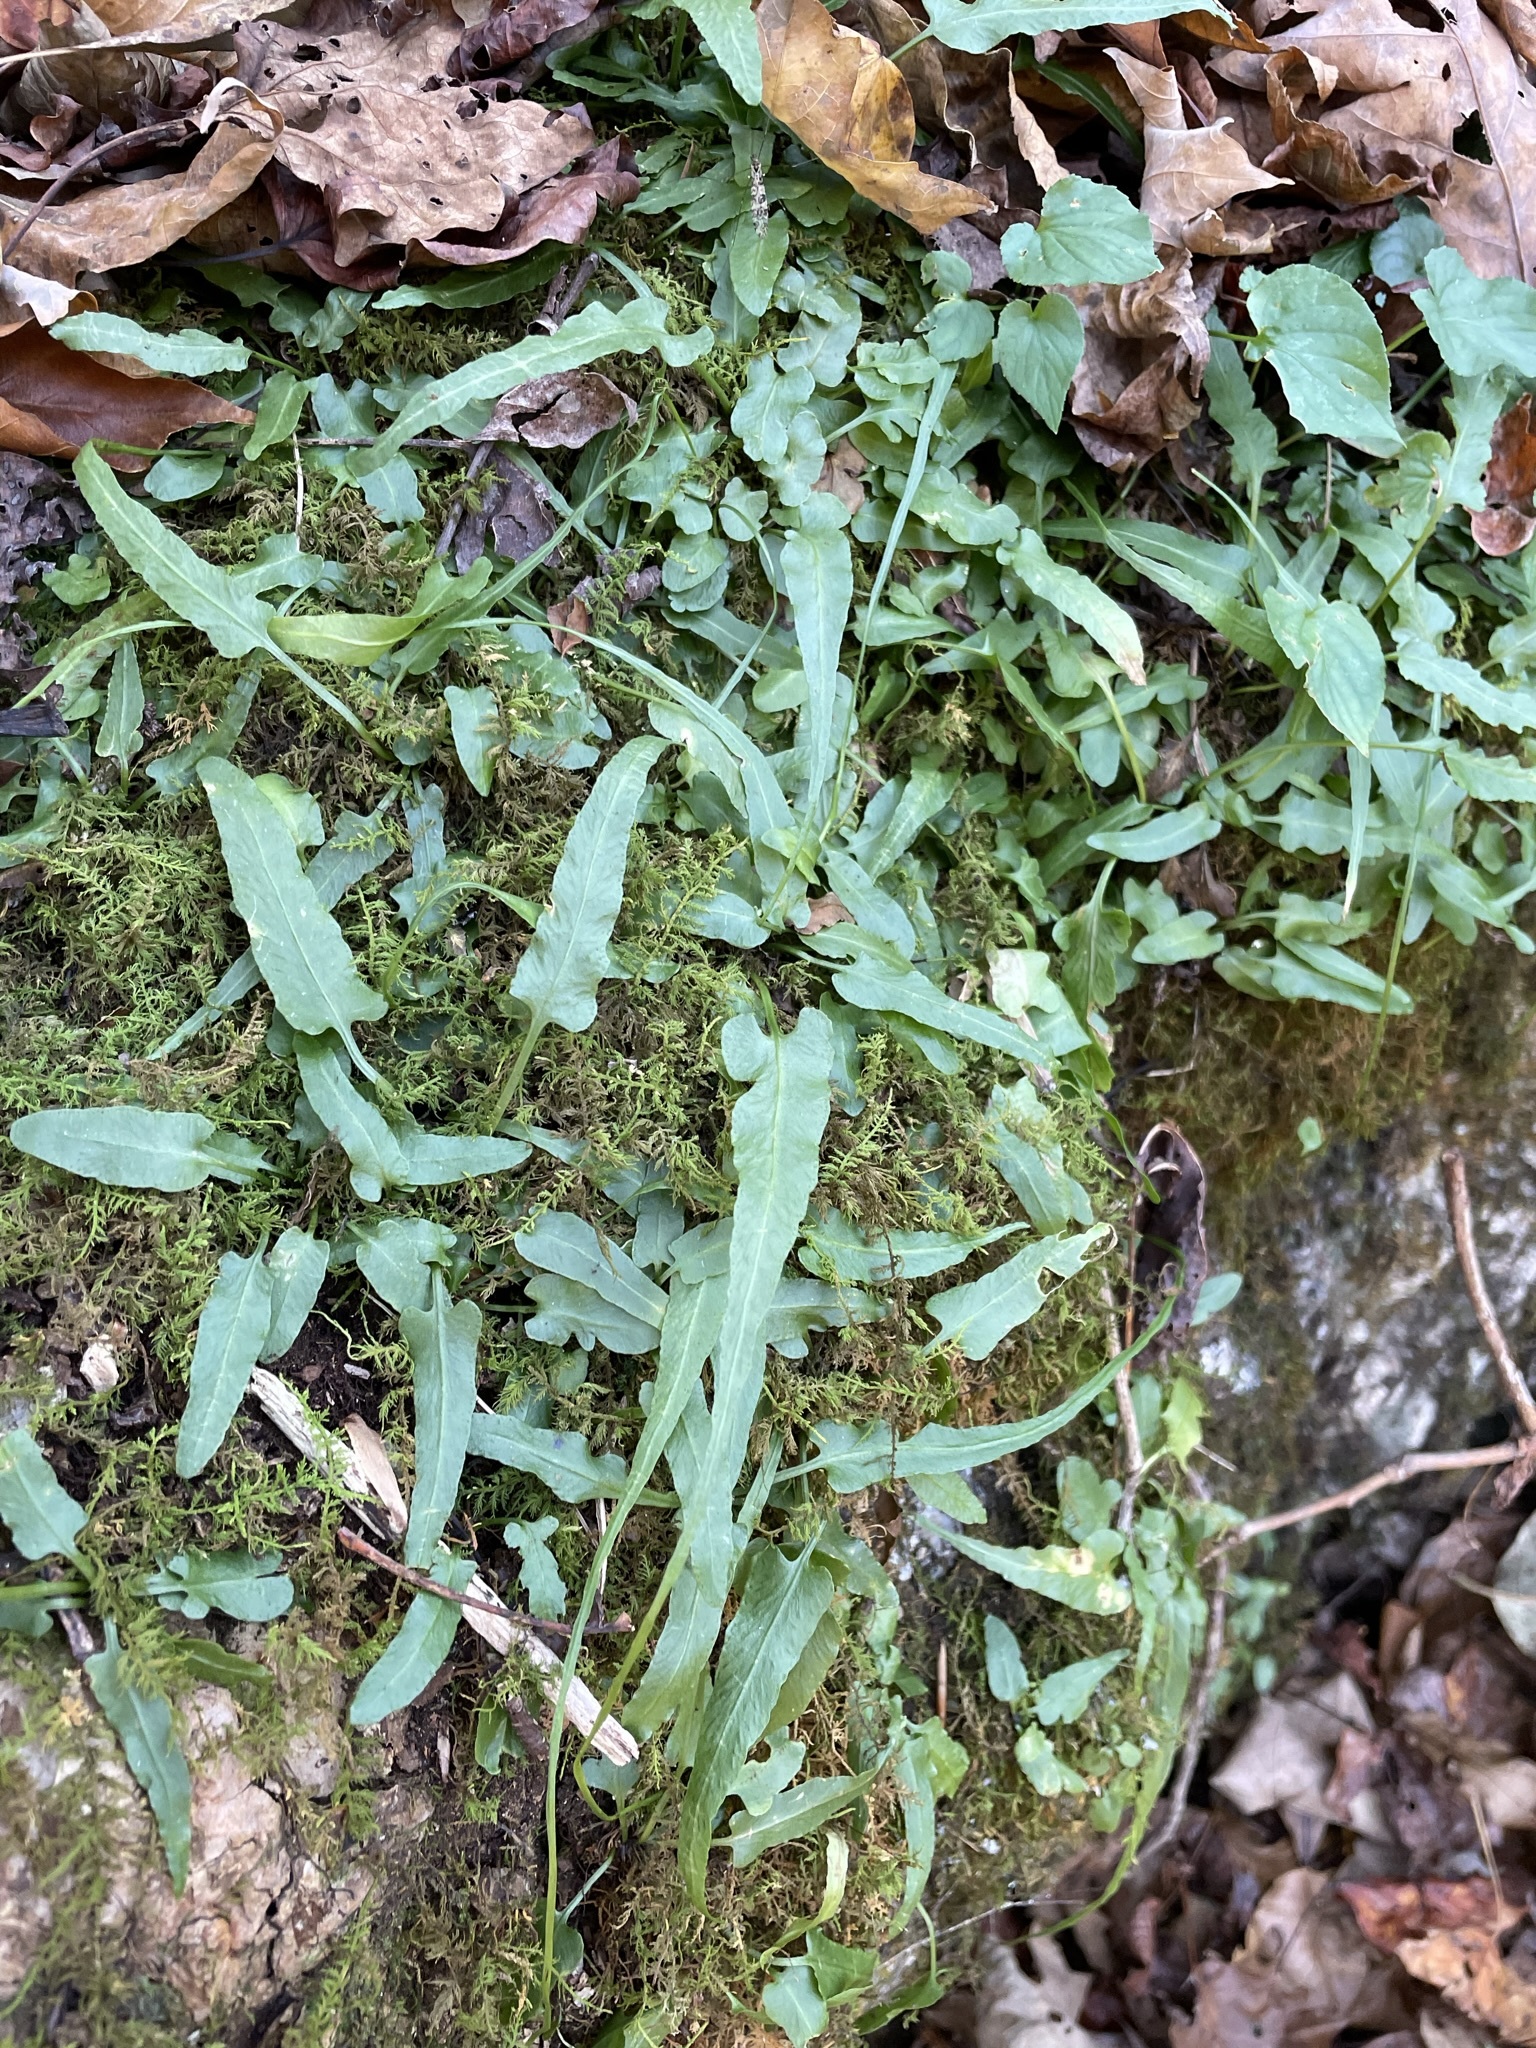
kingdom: Plantae
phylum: Tracheophyta
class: Polypodiopsida
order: Polypodiales
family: Aspleniaceae
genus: Asplenium
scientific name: Asplenium rhizophyllum
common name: Walking fern
